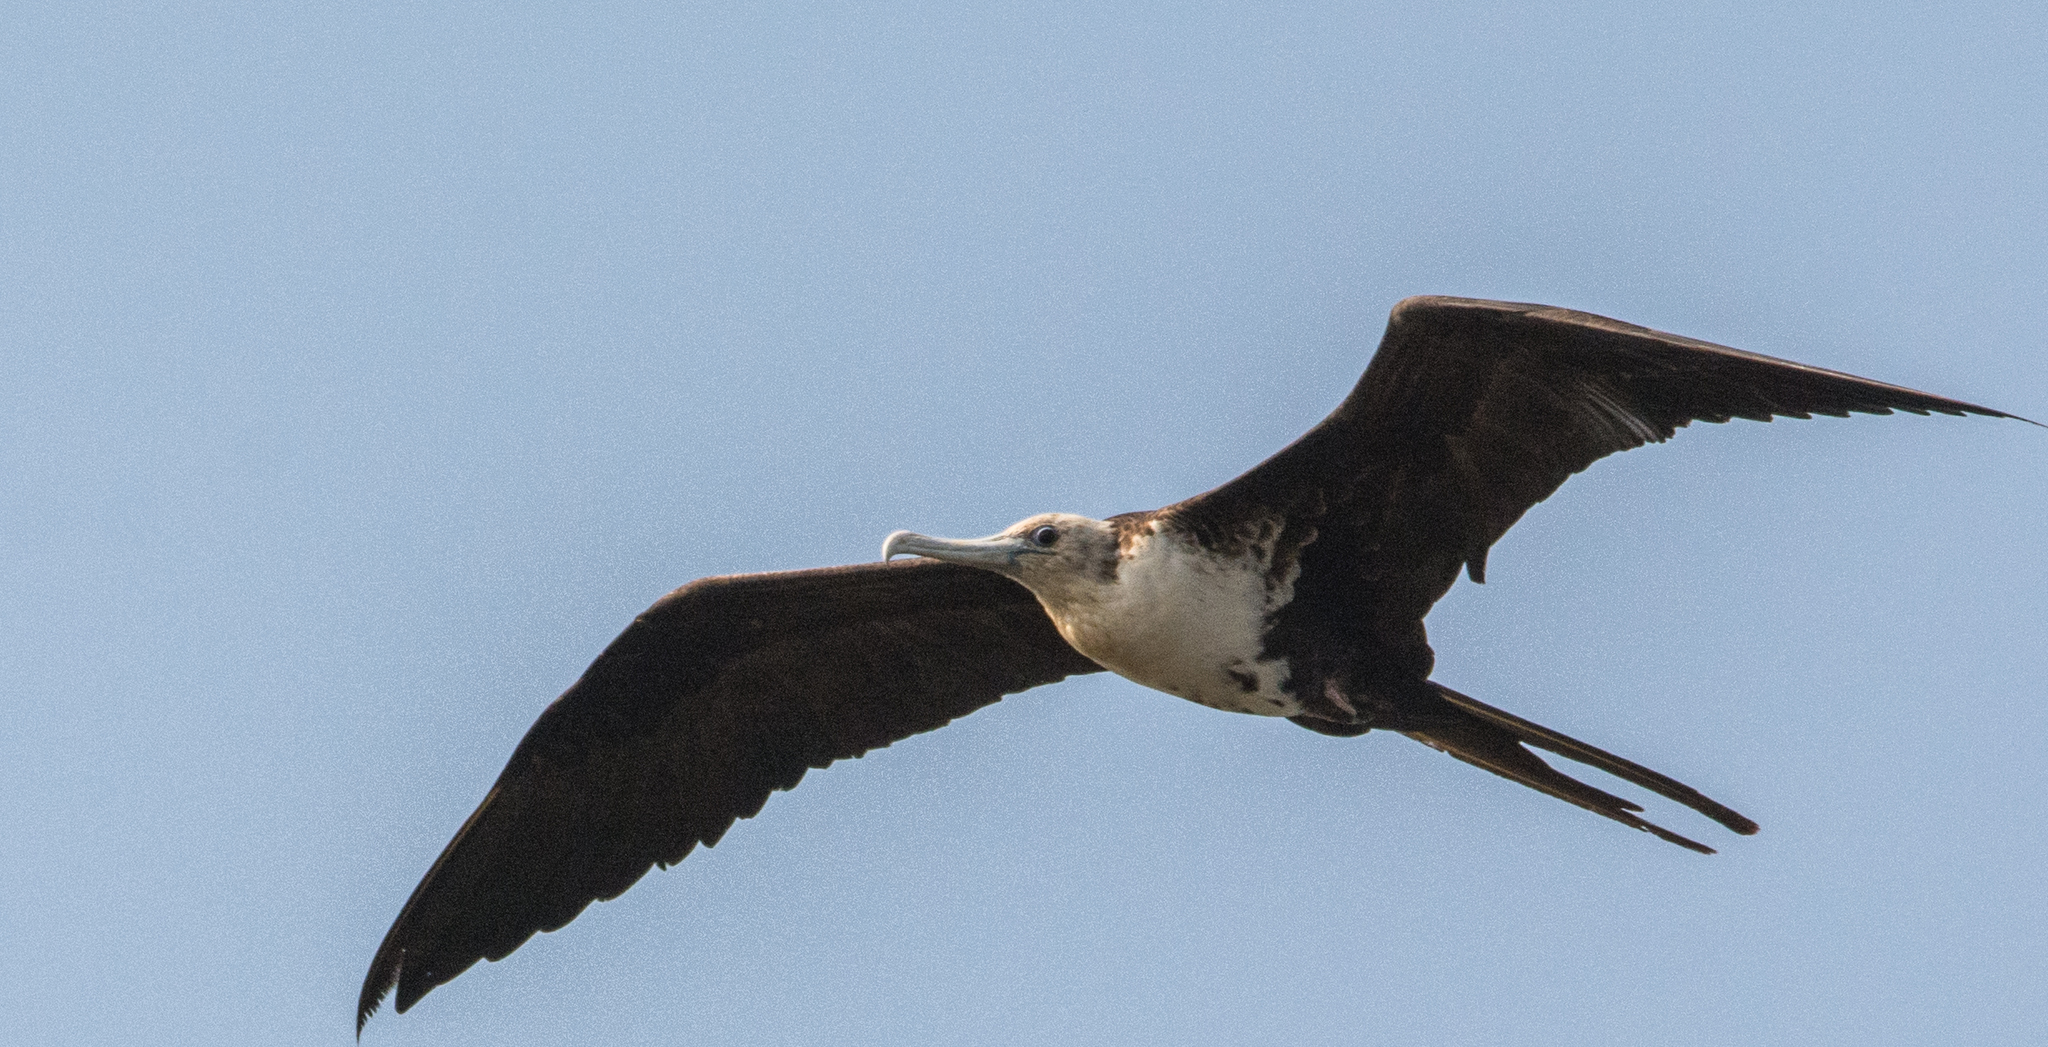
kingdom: Animalia
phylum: Chordata
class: Aves
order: Suliformes
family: Fregatidae
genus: Fregata
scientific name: Fregata magnificens
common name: Magnificent frigatebird
